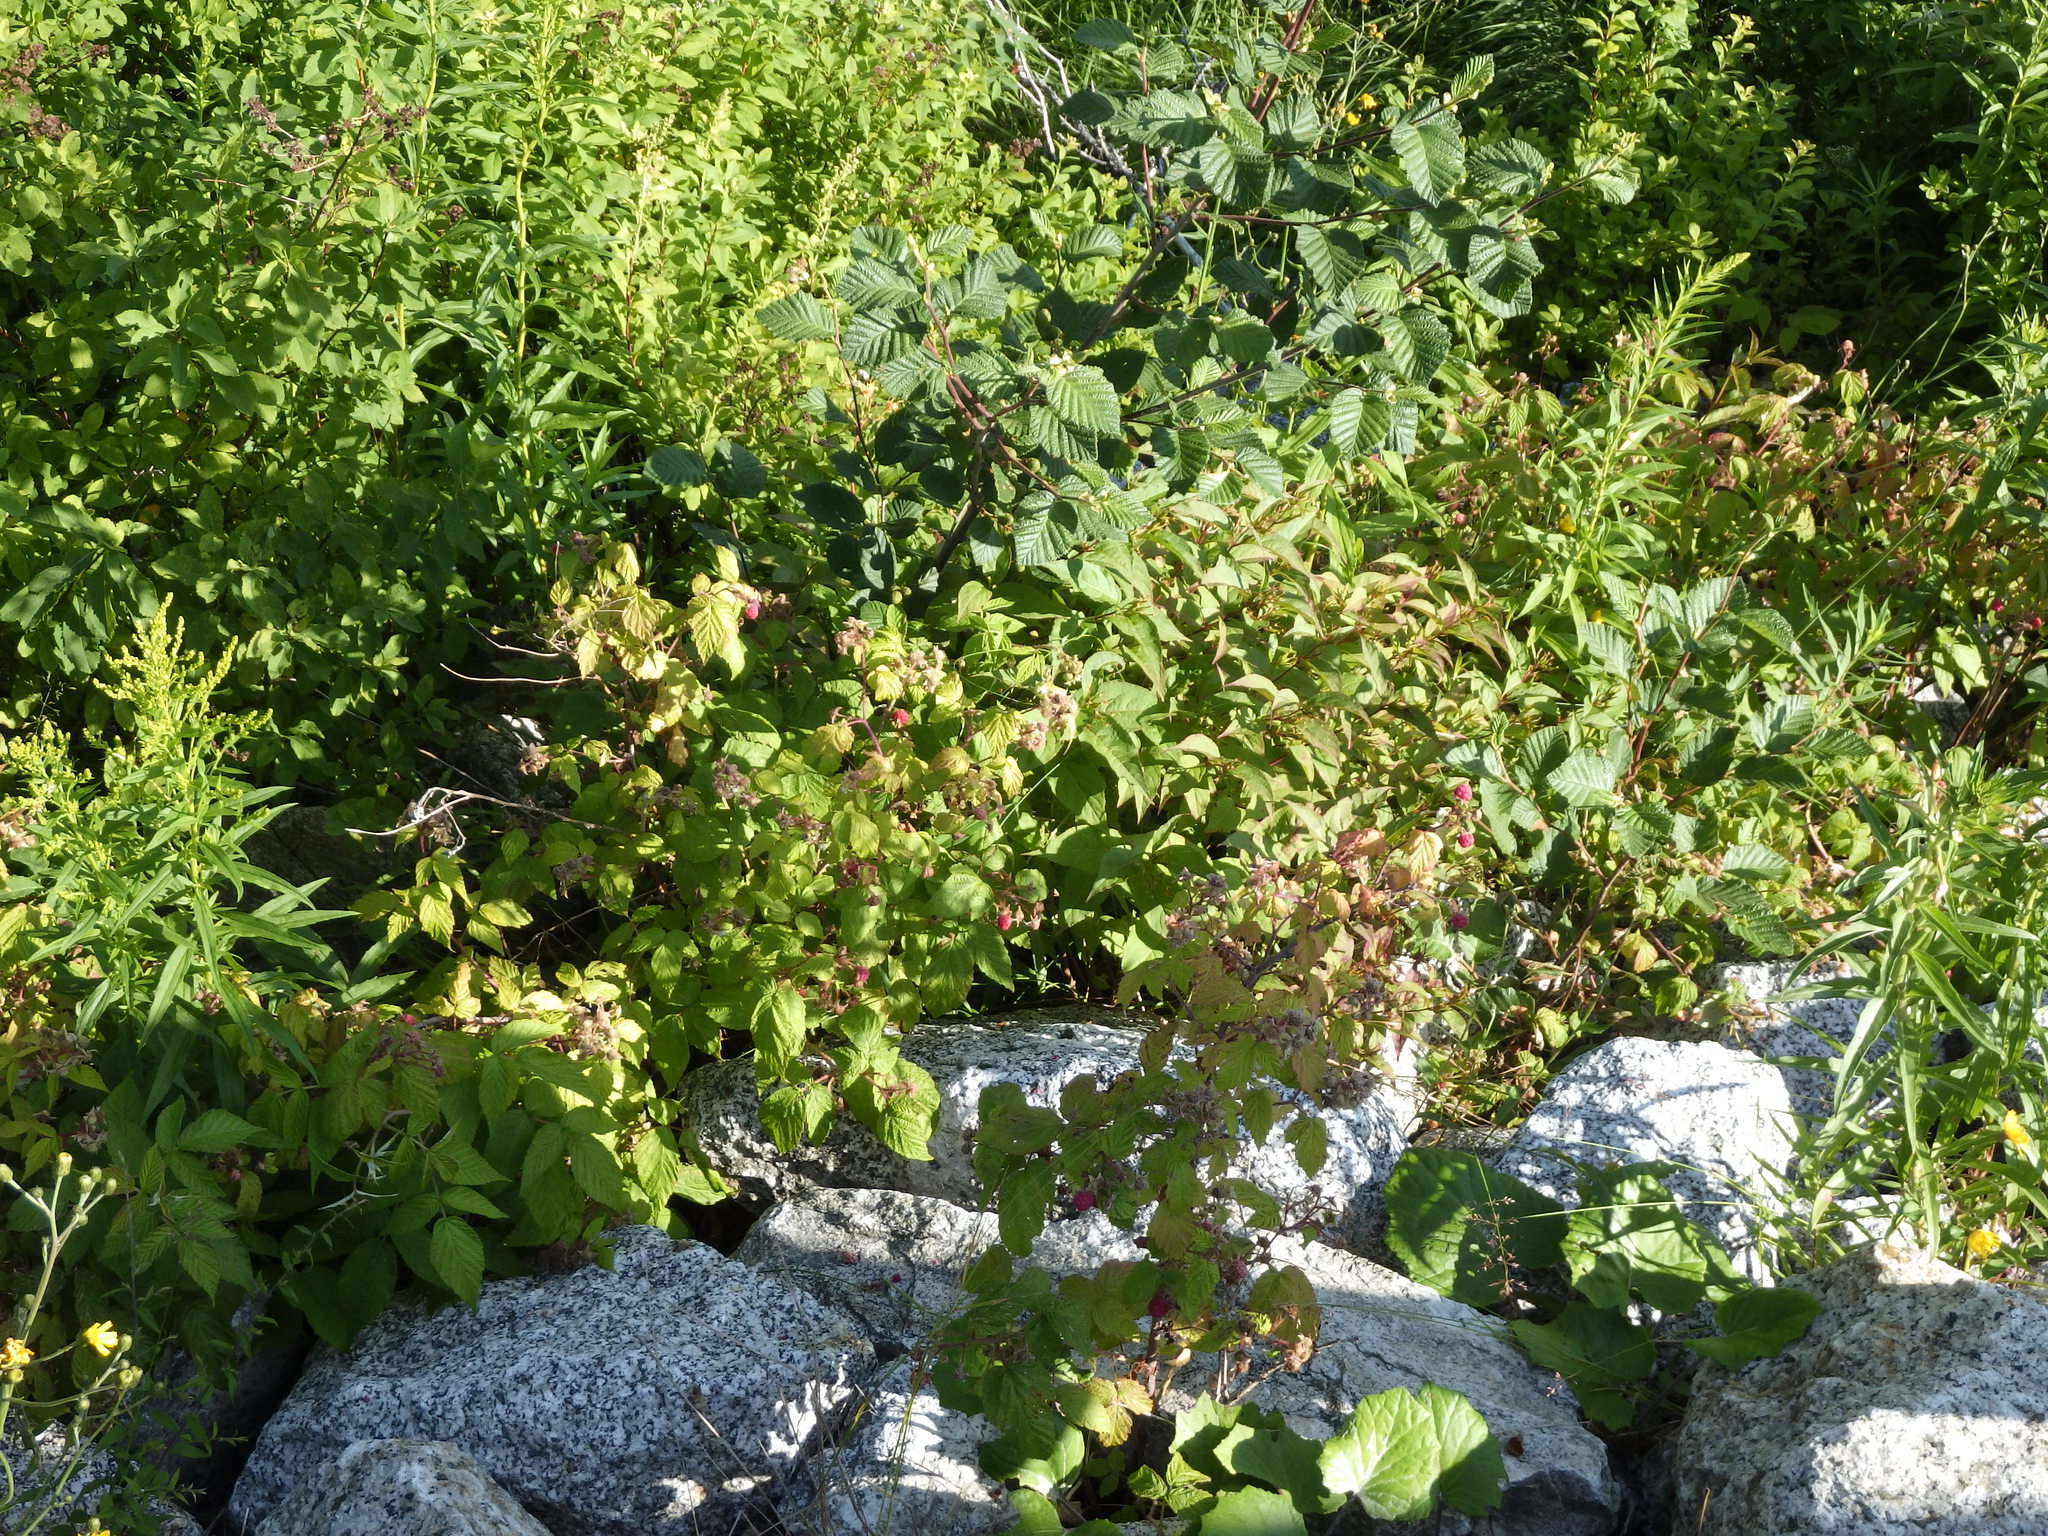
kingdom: Plantae
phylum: Tracheophyta
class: Magnoliopsida
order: Rosales
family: Rosaceae
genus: Rubus
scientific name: Rubus idaeus
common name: Raspberry
